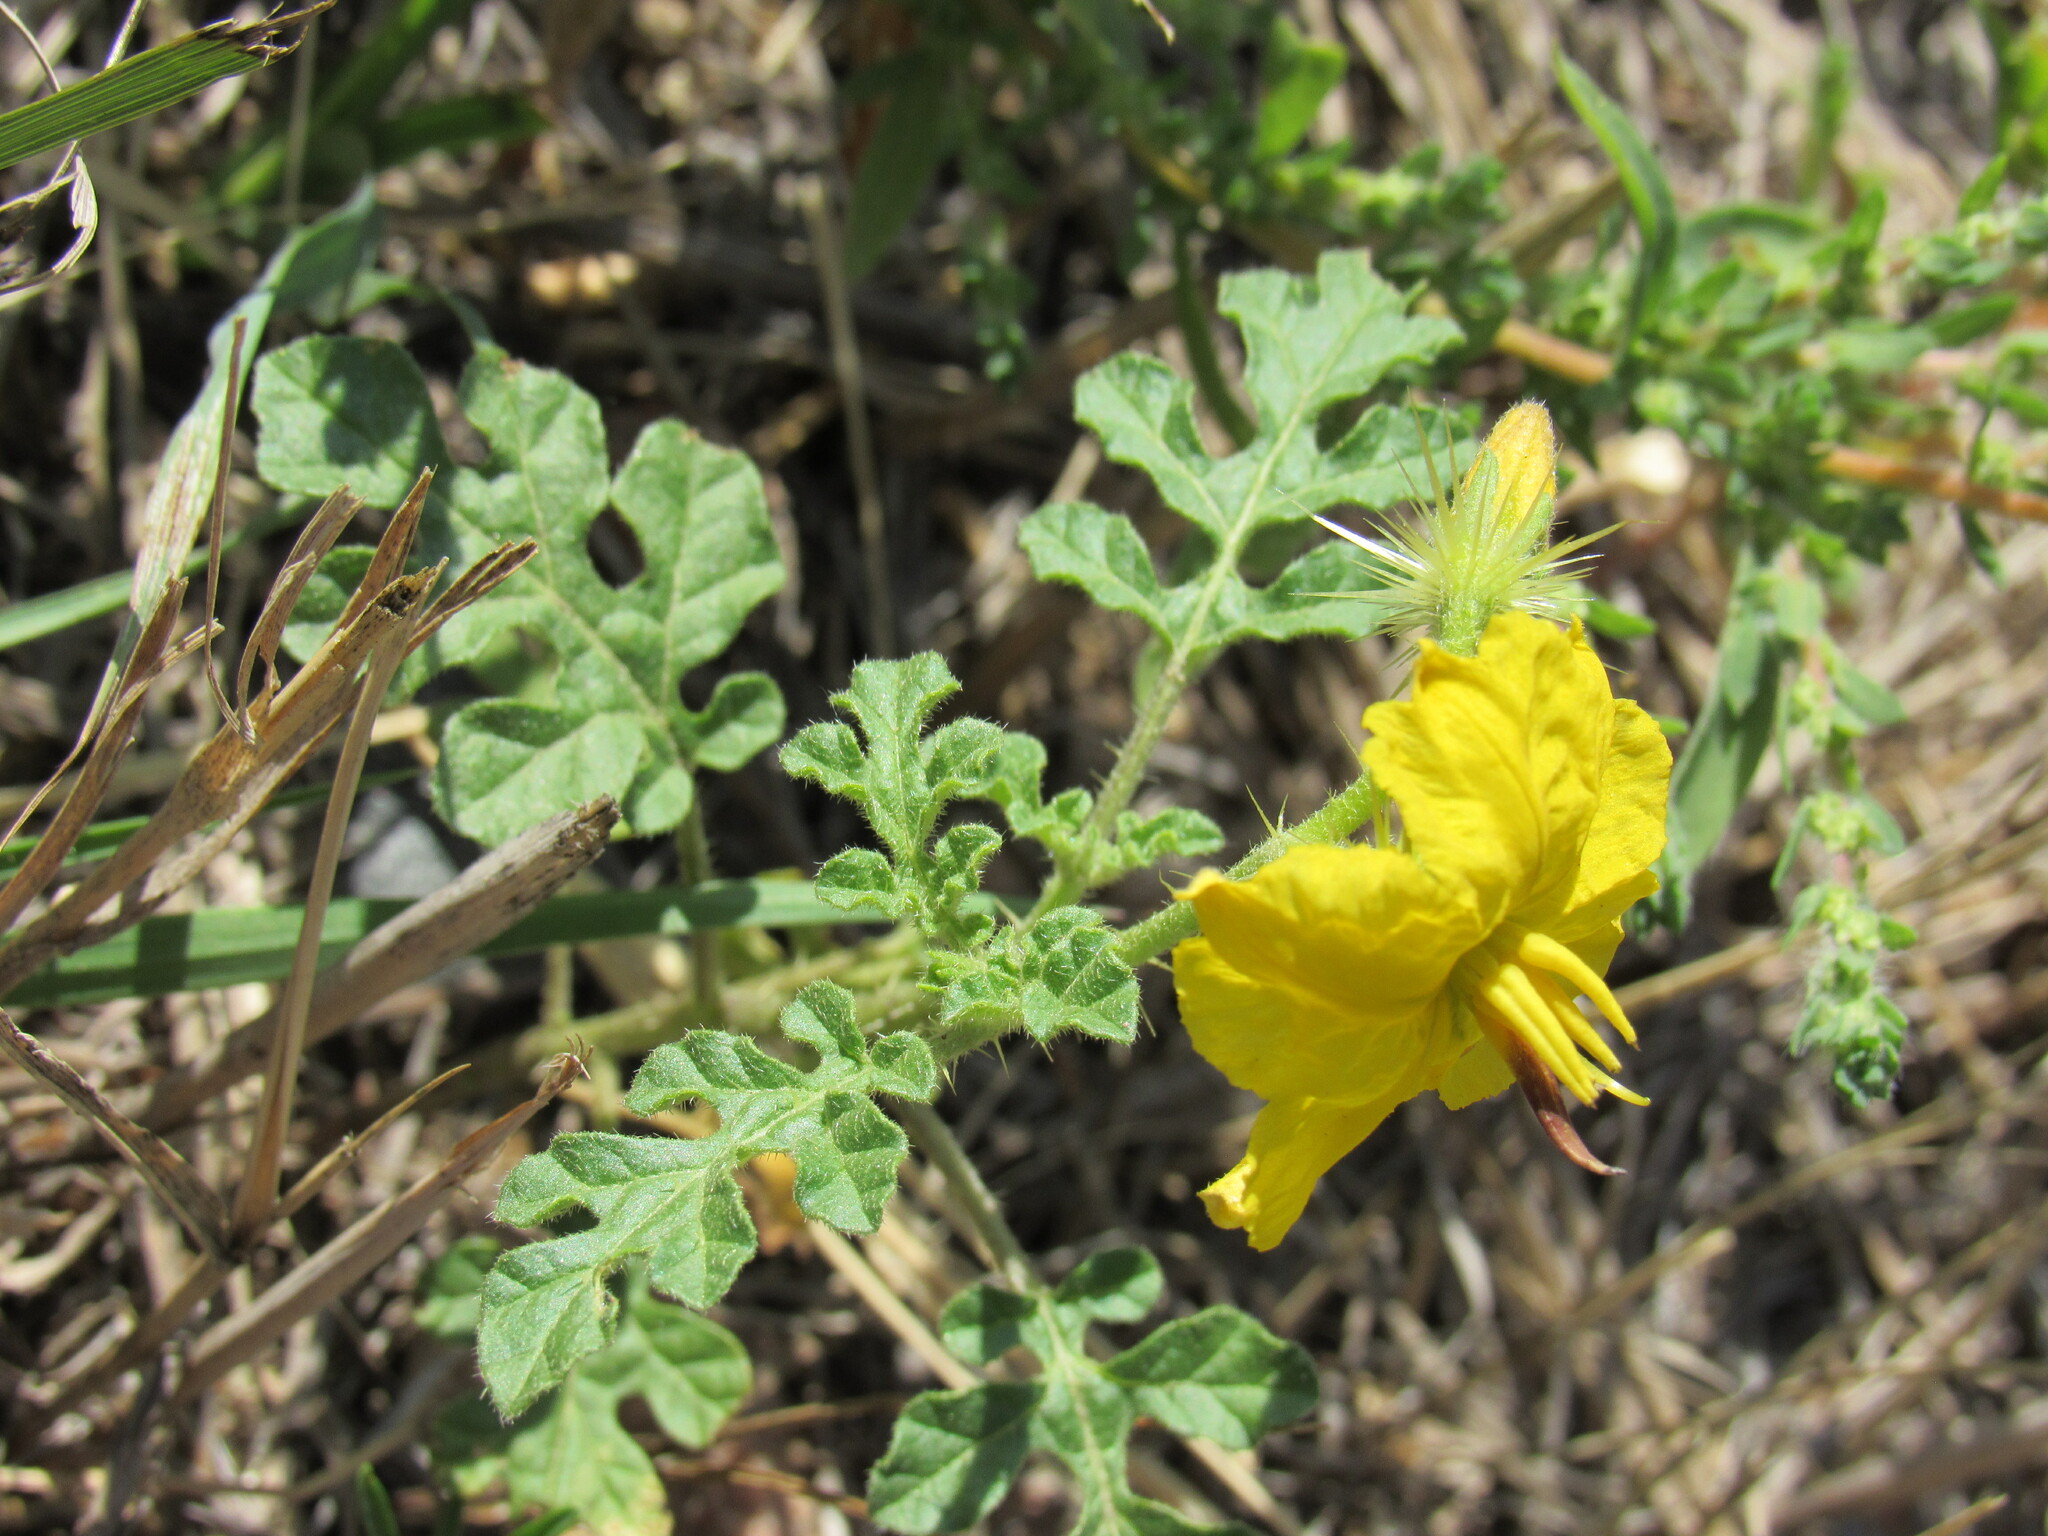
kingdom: Plantae
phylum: Tracheophyta
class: Magnoliopsida
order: Solanales
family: Solanaceae
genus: Solanum
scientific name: Solanum angustifolium
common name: Buffalobur nightshade
